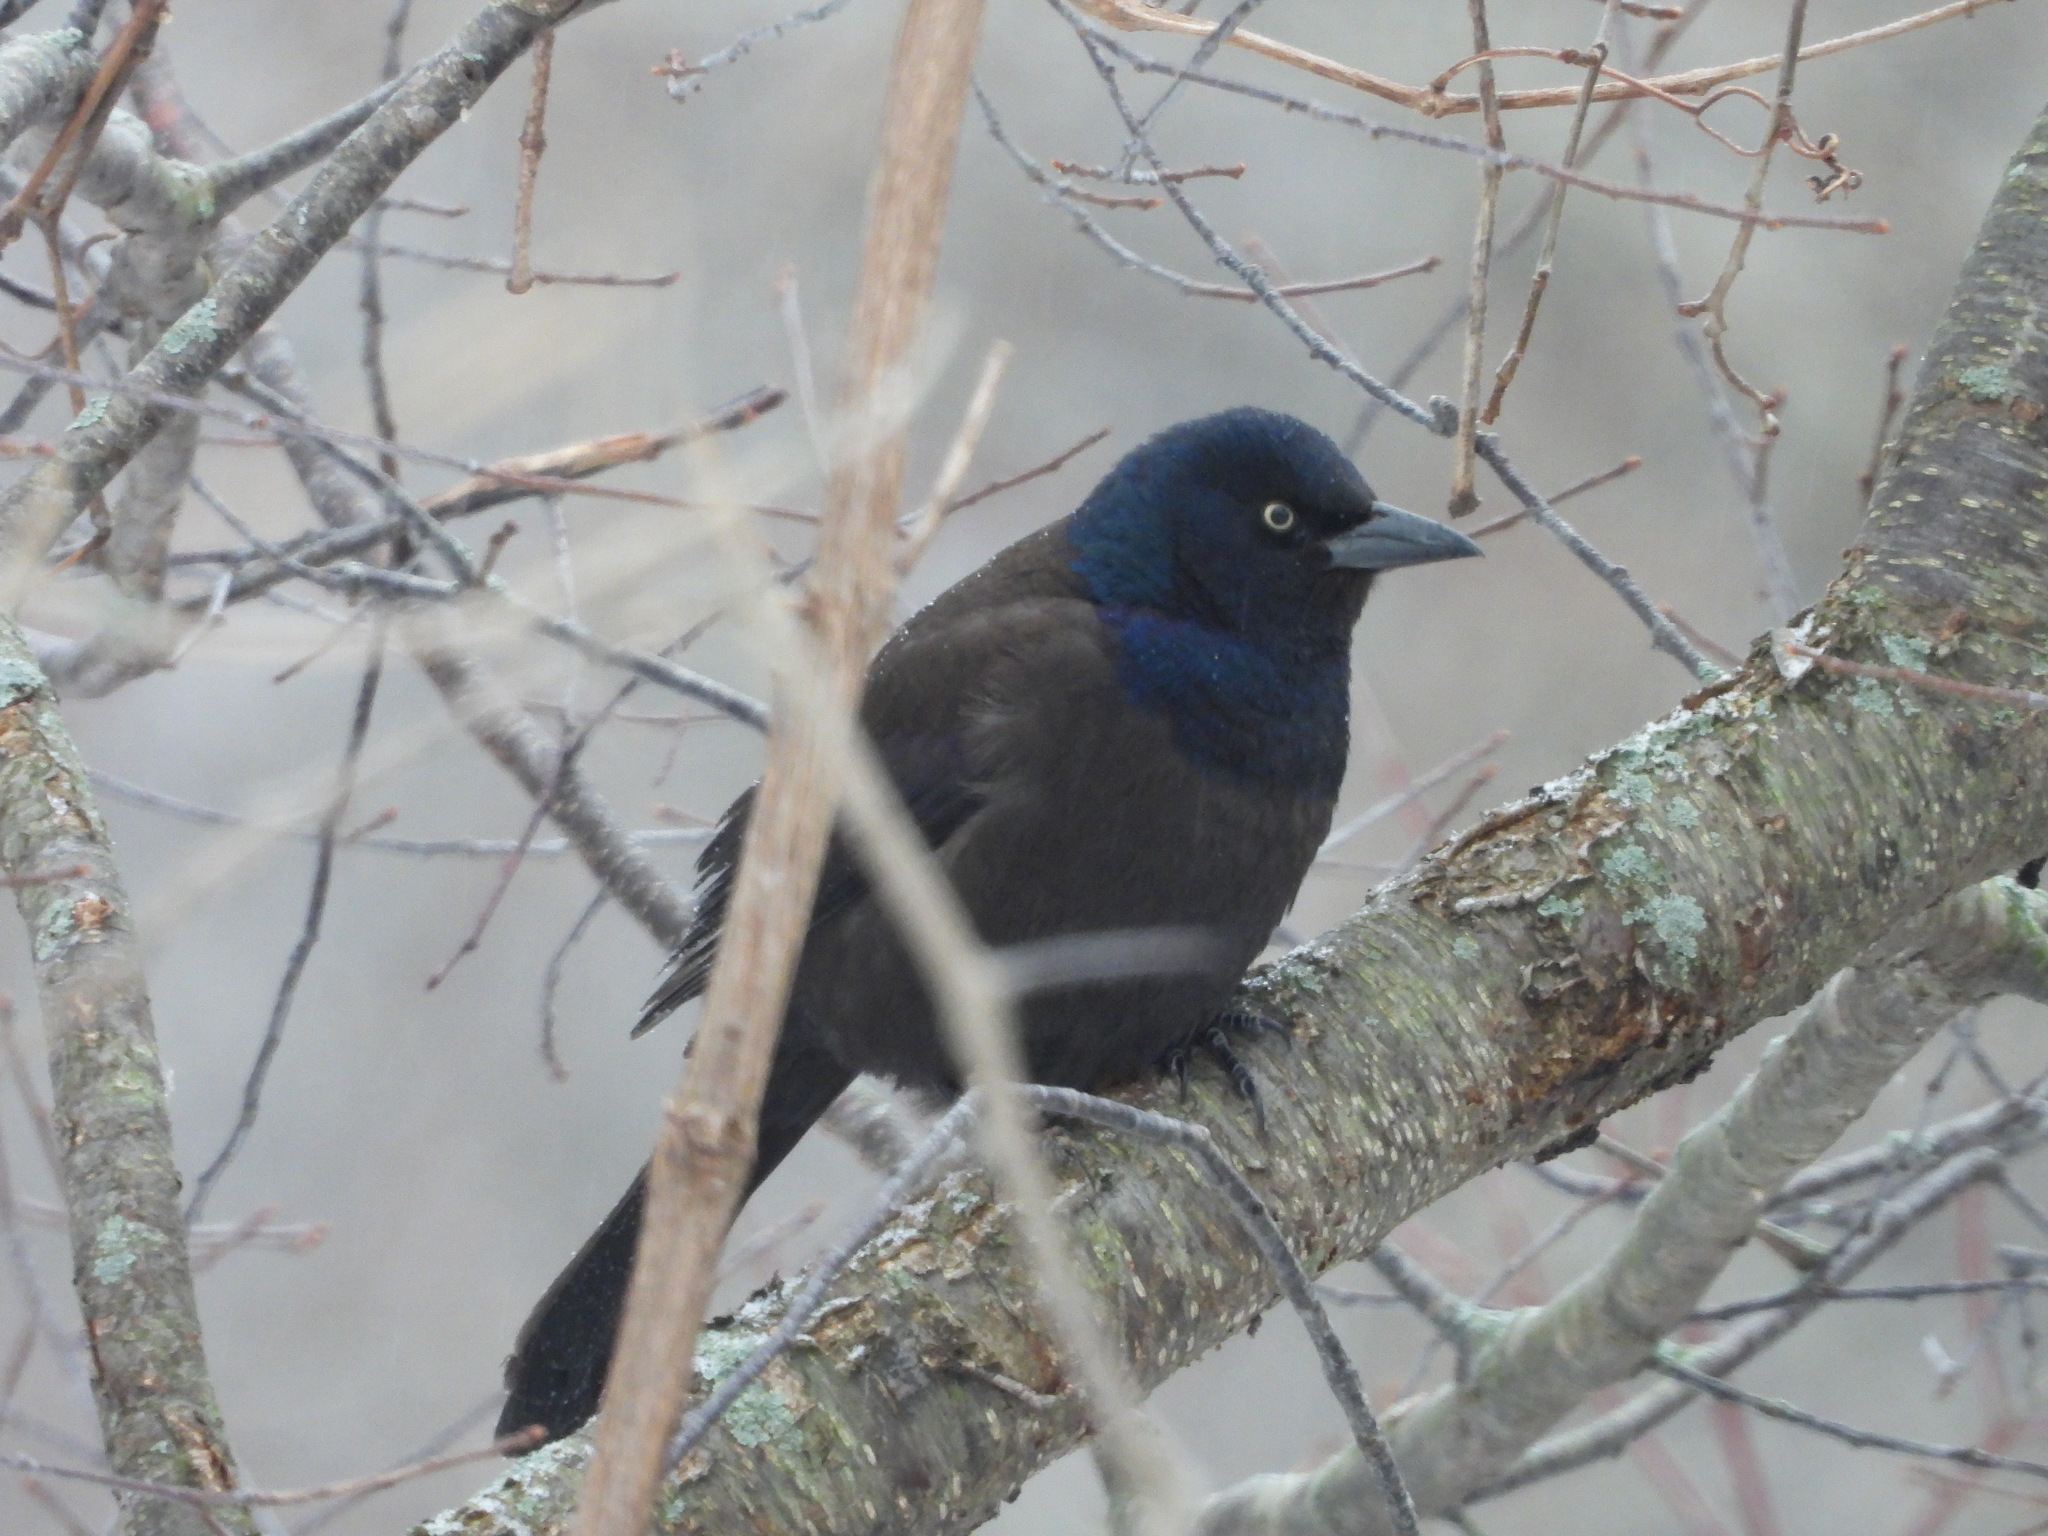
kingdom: Animalia
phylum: Chordata
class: Aves
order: Passeriformes
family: Icteridae
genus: Quiscalus
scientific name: Quiscalus quiscula
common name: Common grackle
